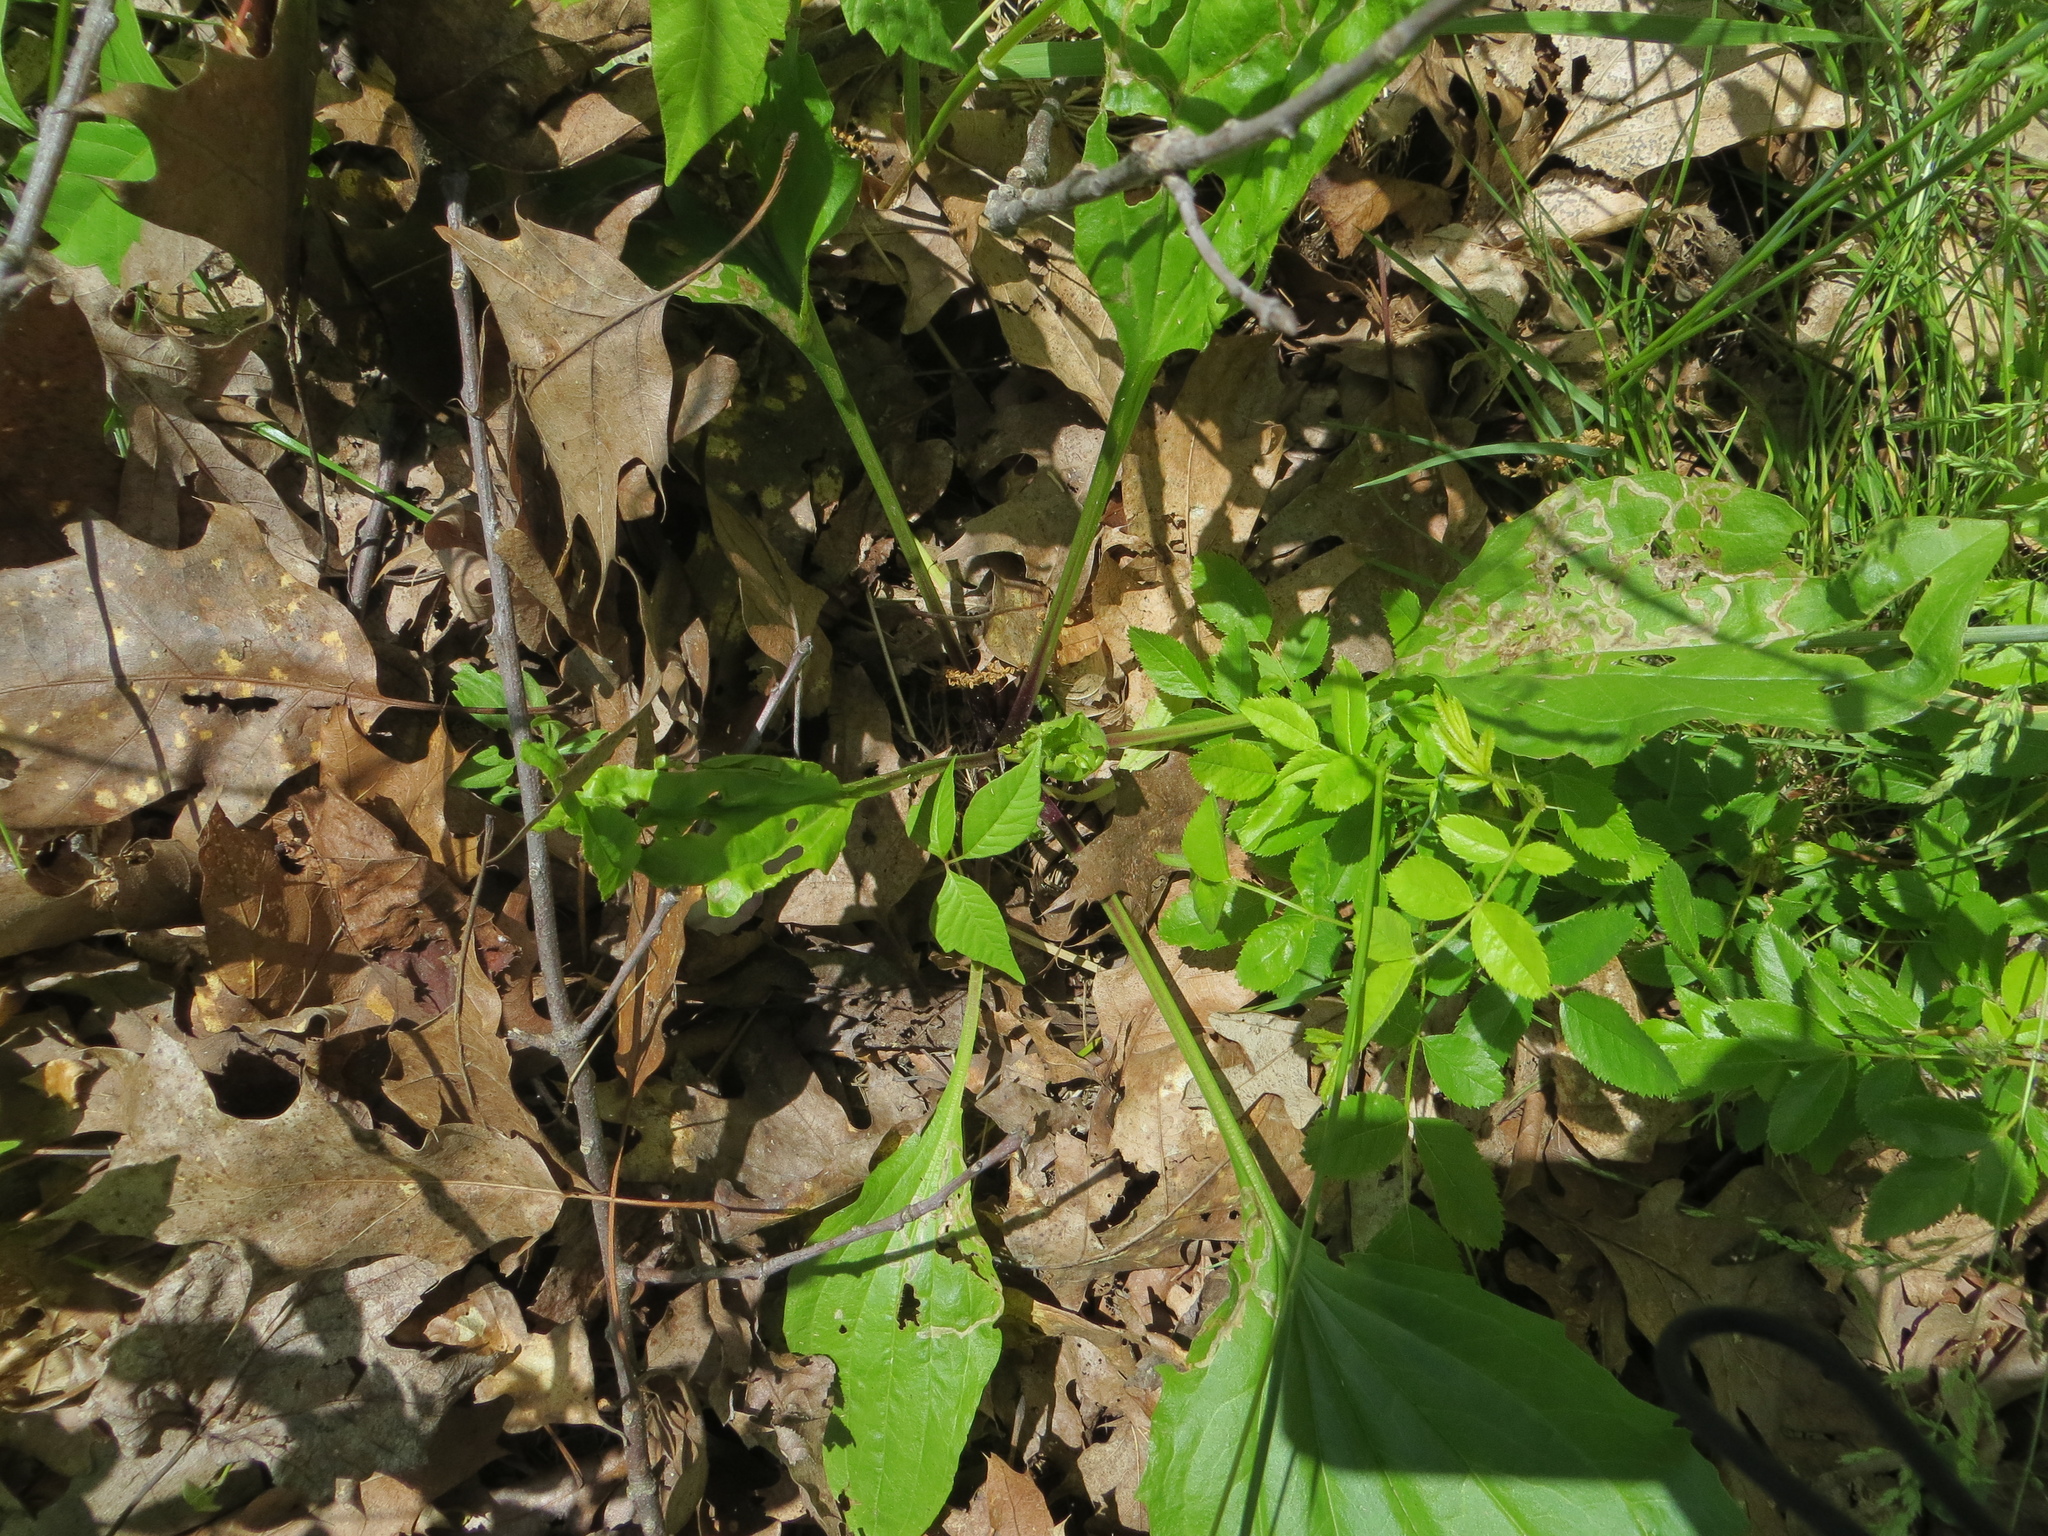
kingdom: Plantae
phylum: Tracheophyta
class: Magnoliopsida
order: Lamiales
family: Plantaginaceae
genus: Plantago
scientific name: Plantago rugelii
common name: American plantain
